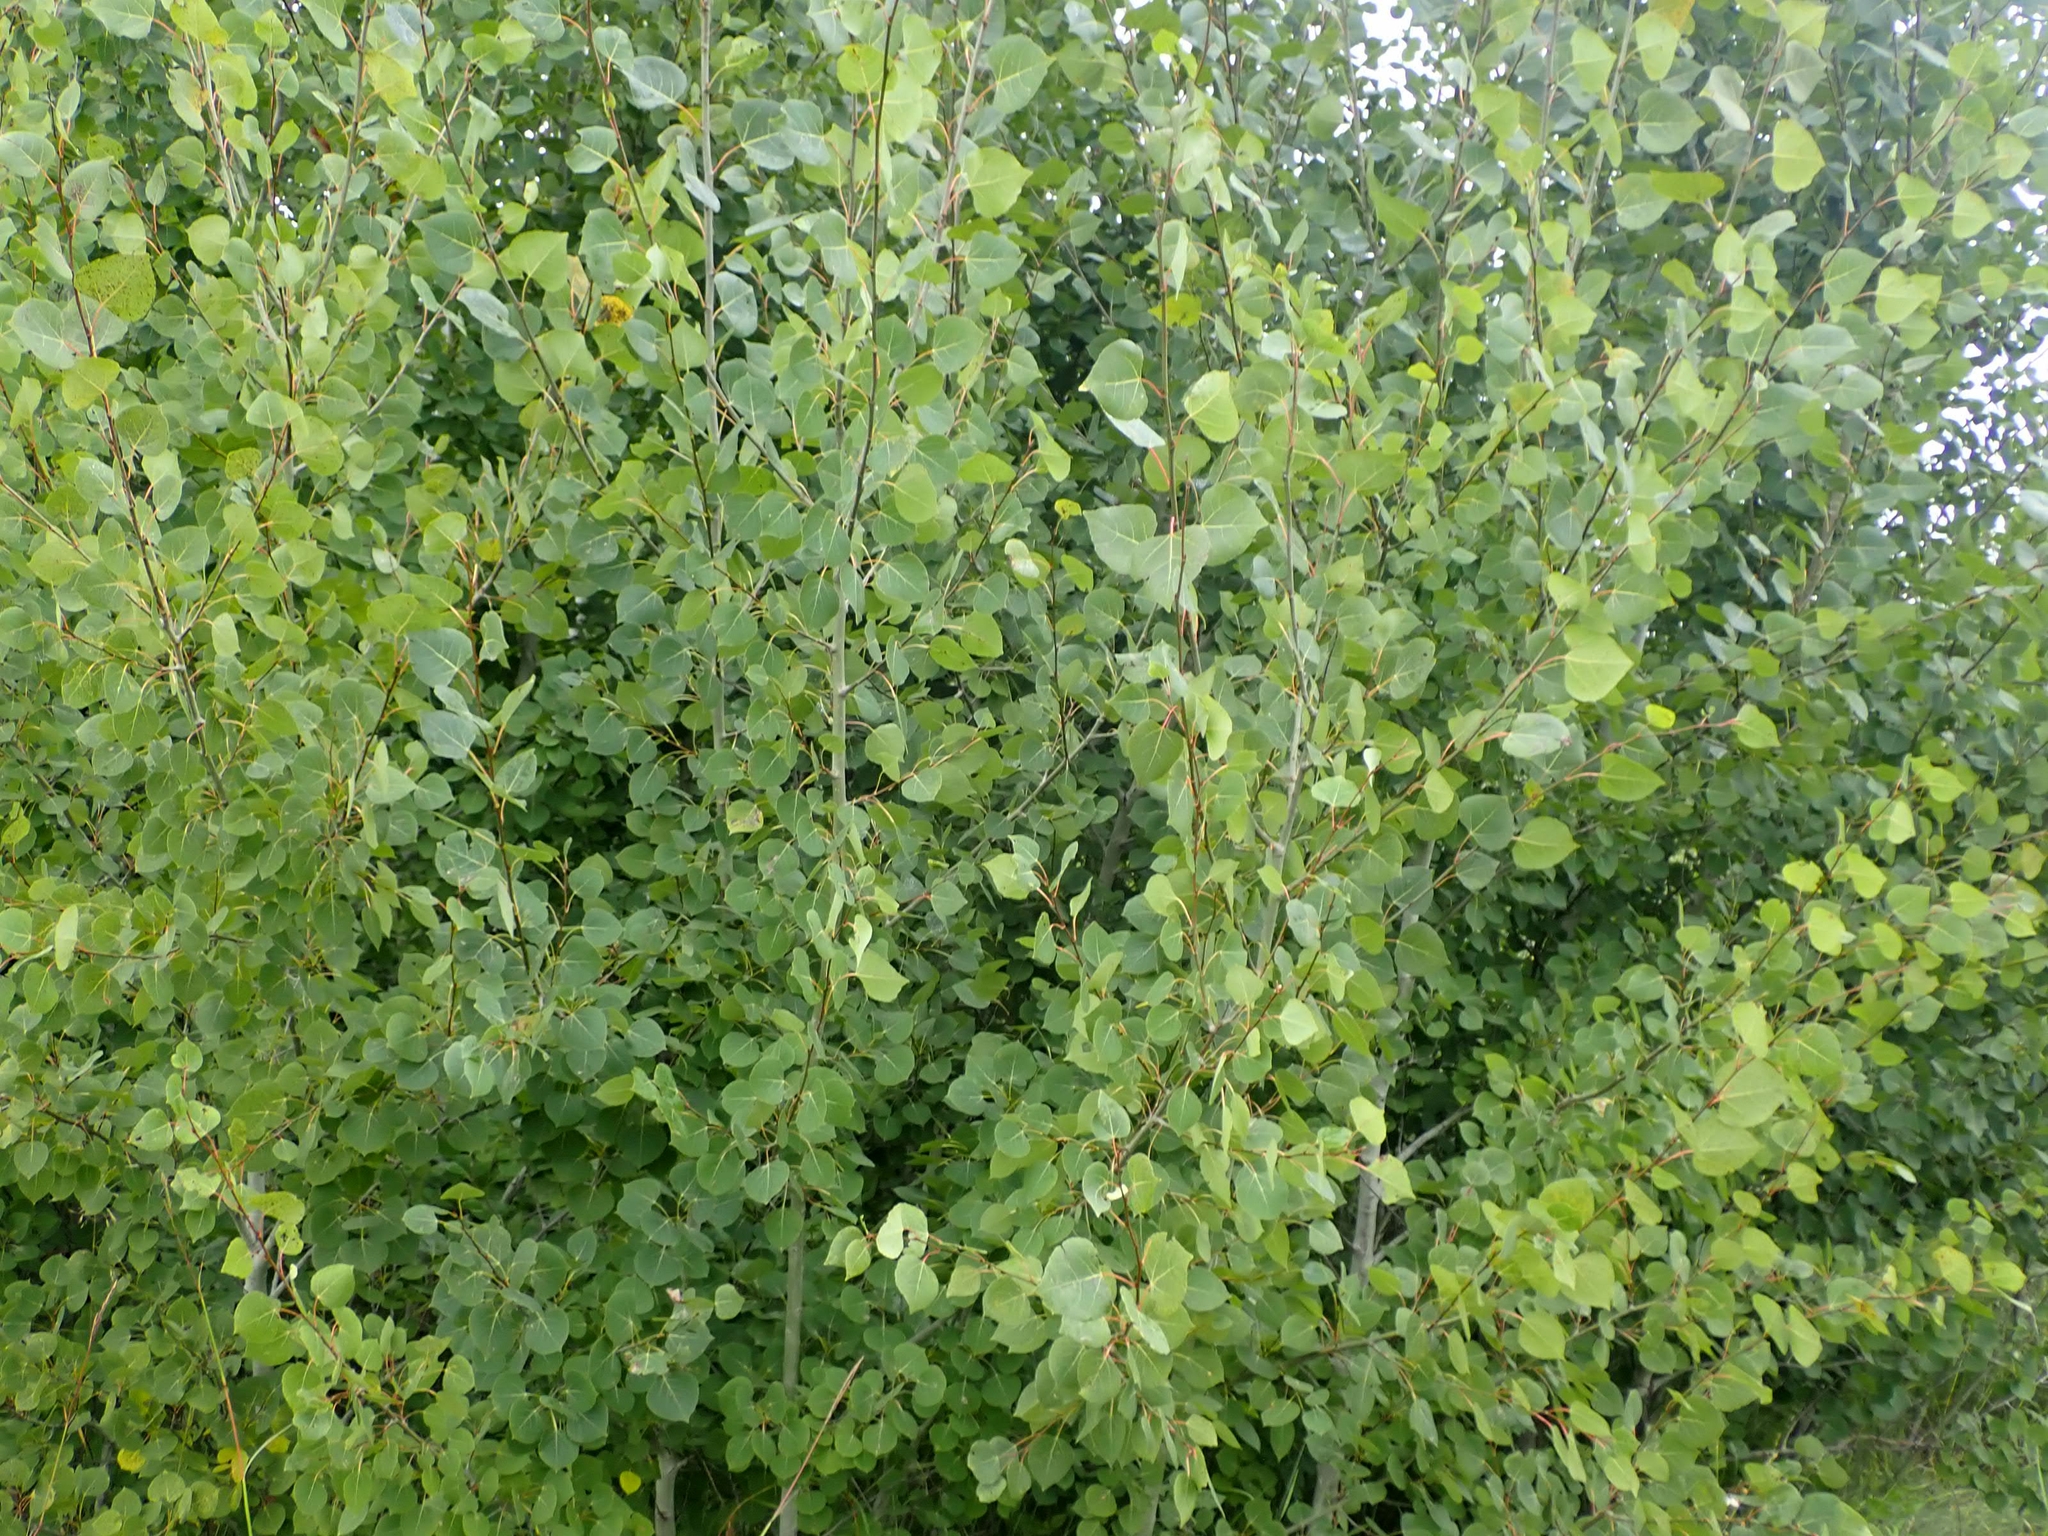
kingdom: Plantae
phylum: Tracheophyta
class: Magnoliopsida
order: Malpighiales
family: Salicaceae
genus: Populus
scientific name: Populus tremuloides
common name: Quaking aspen
